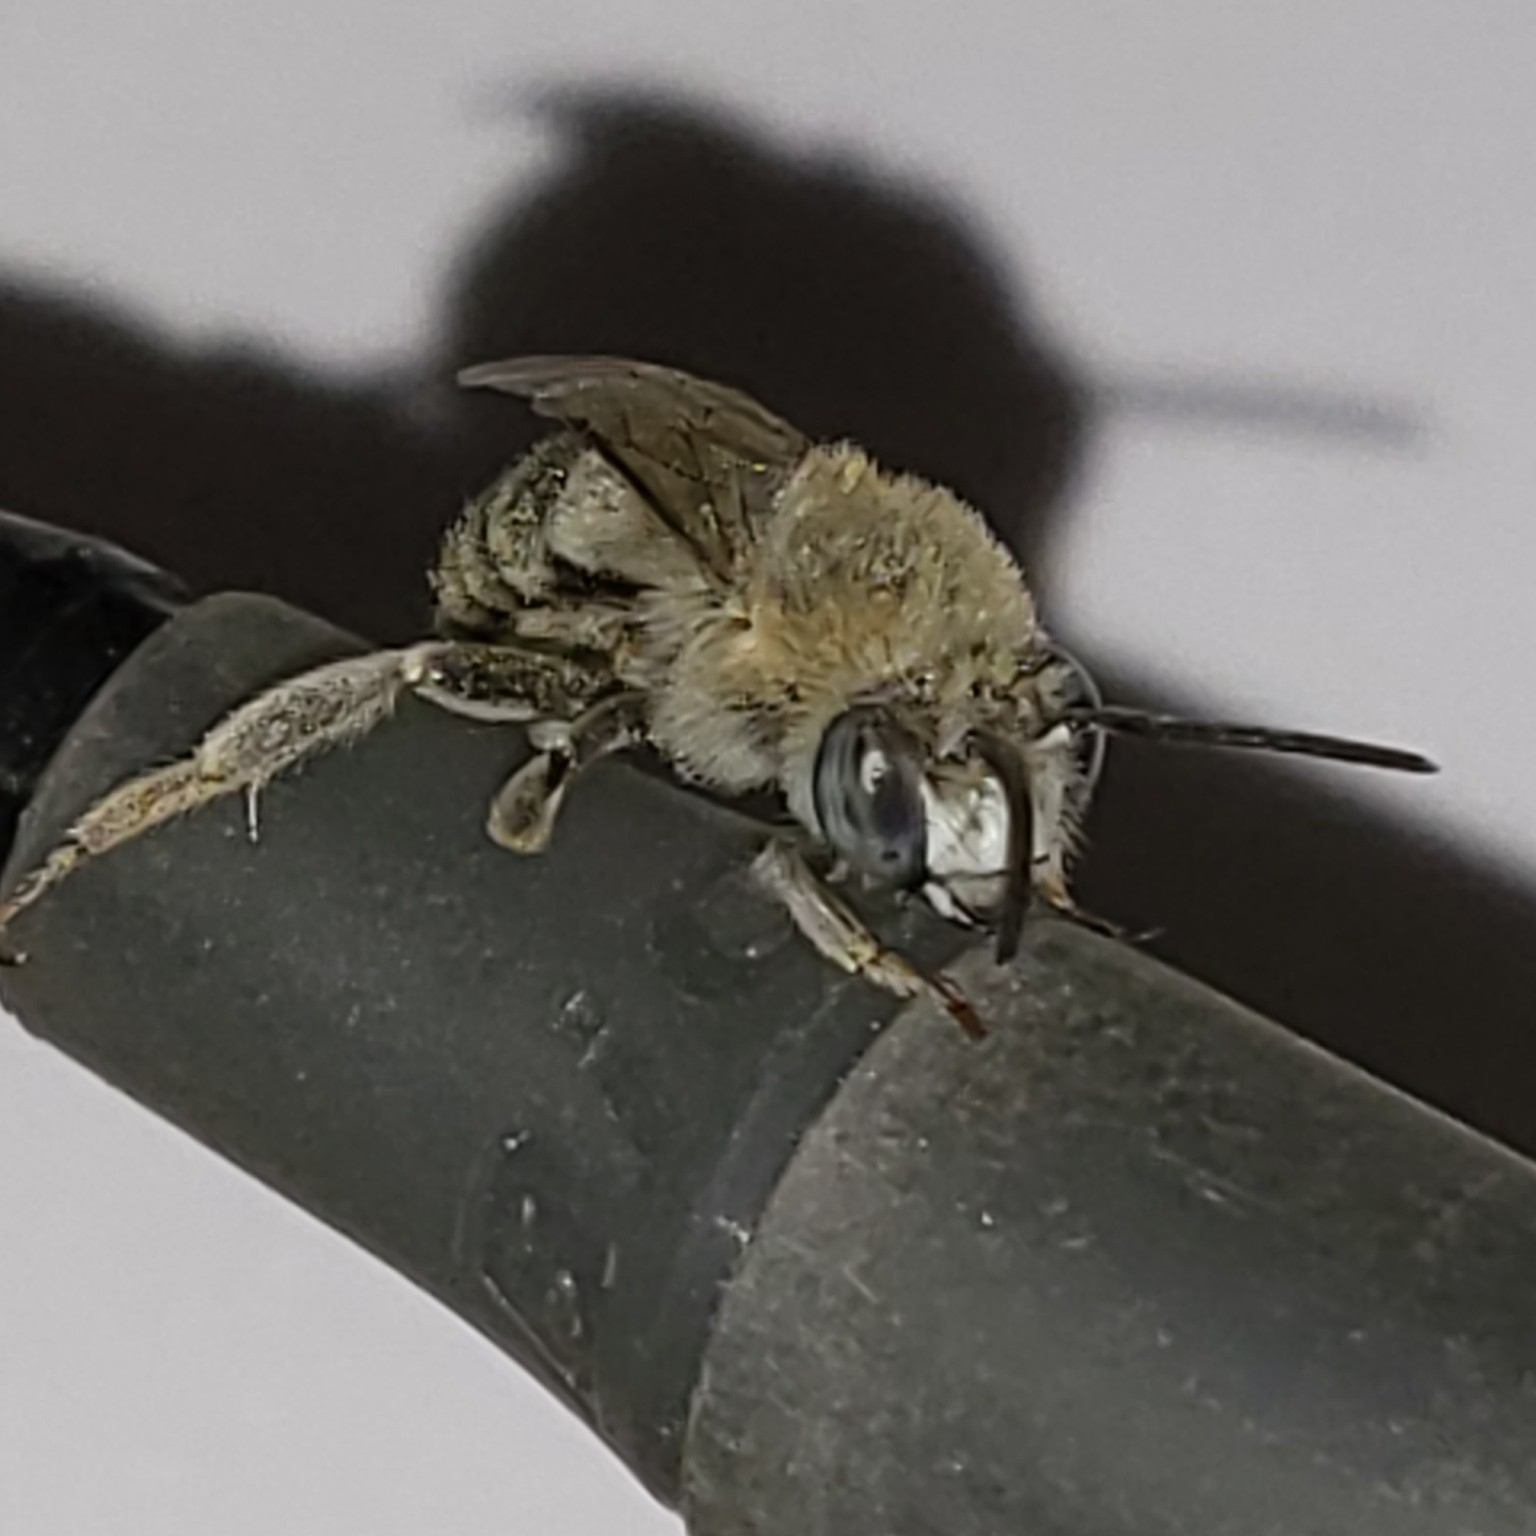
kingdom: Animalia
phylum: Arthropoda
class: Insecta
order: Hymenoptera
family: Apidae
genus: Anthophora
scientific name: Anthophora urbana
